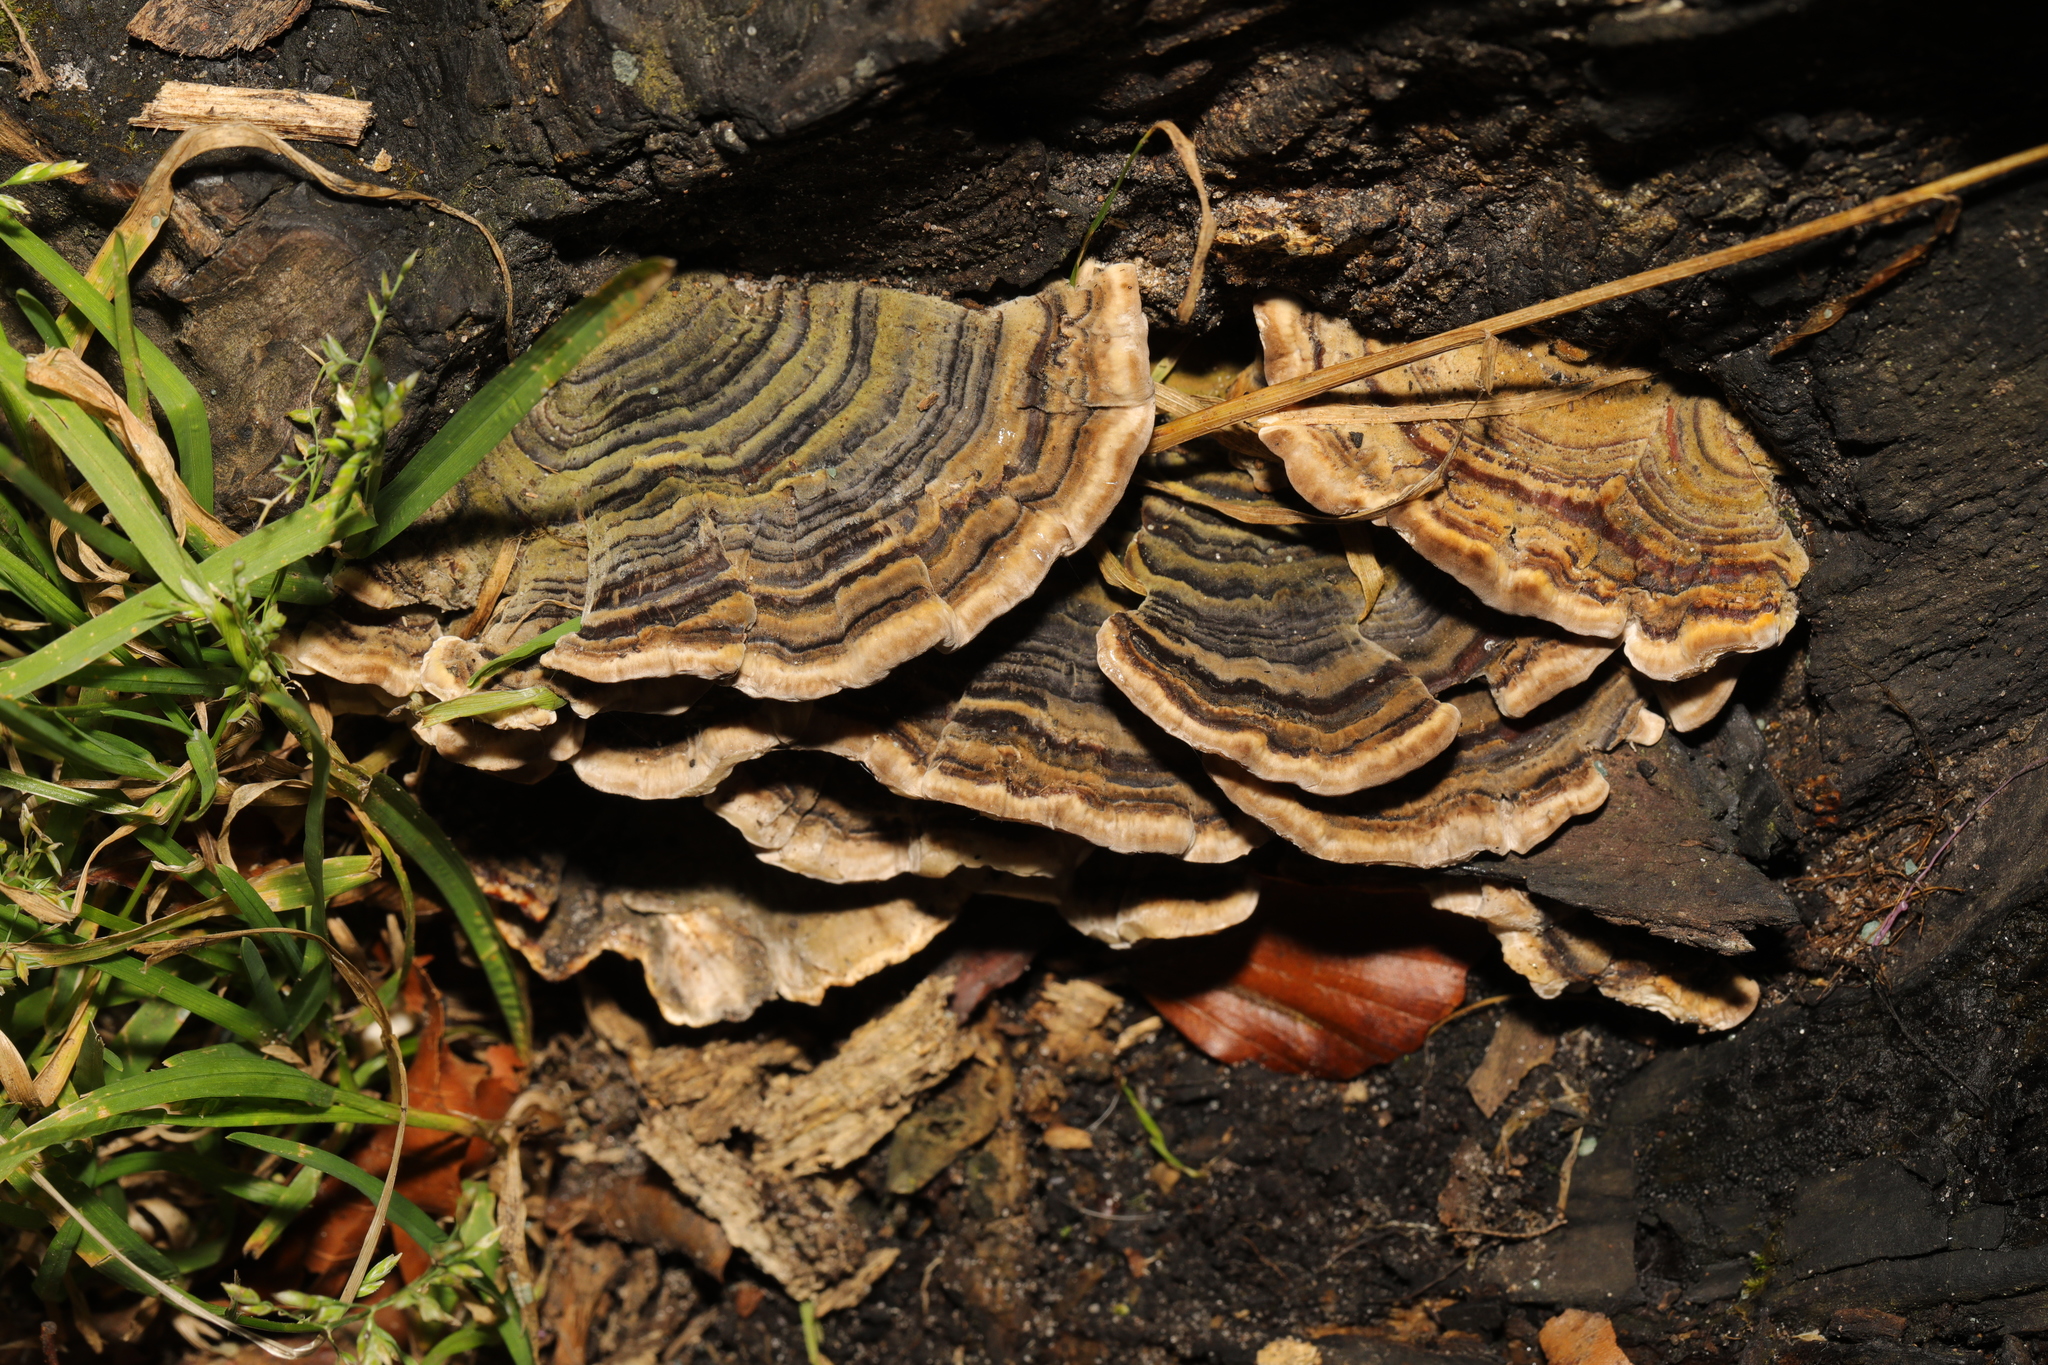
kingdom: Fungi
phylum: Basidiomycota
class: Agaricomycetes
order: Polyporales
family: Polyporaceae
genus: Trametes
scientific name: Trametes versicolor
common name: Turkeytail
